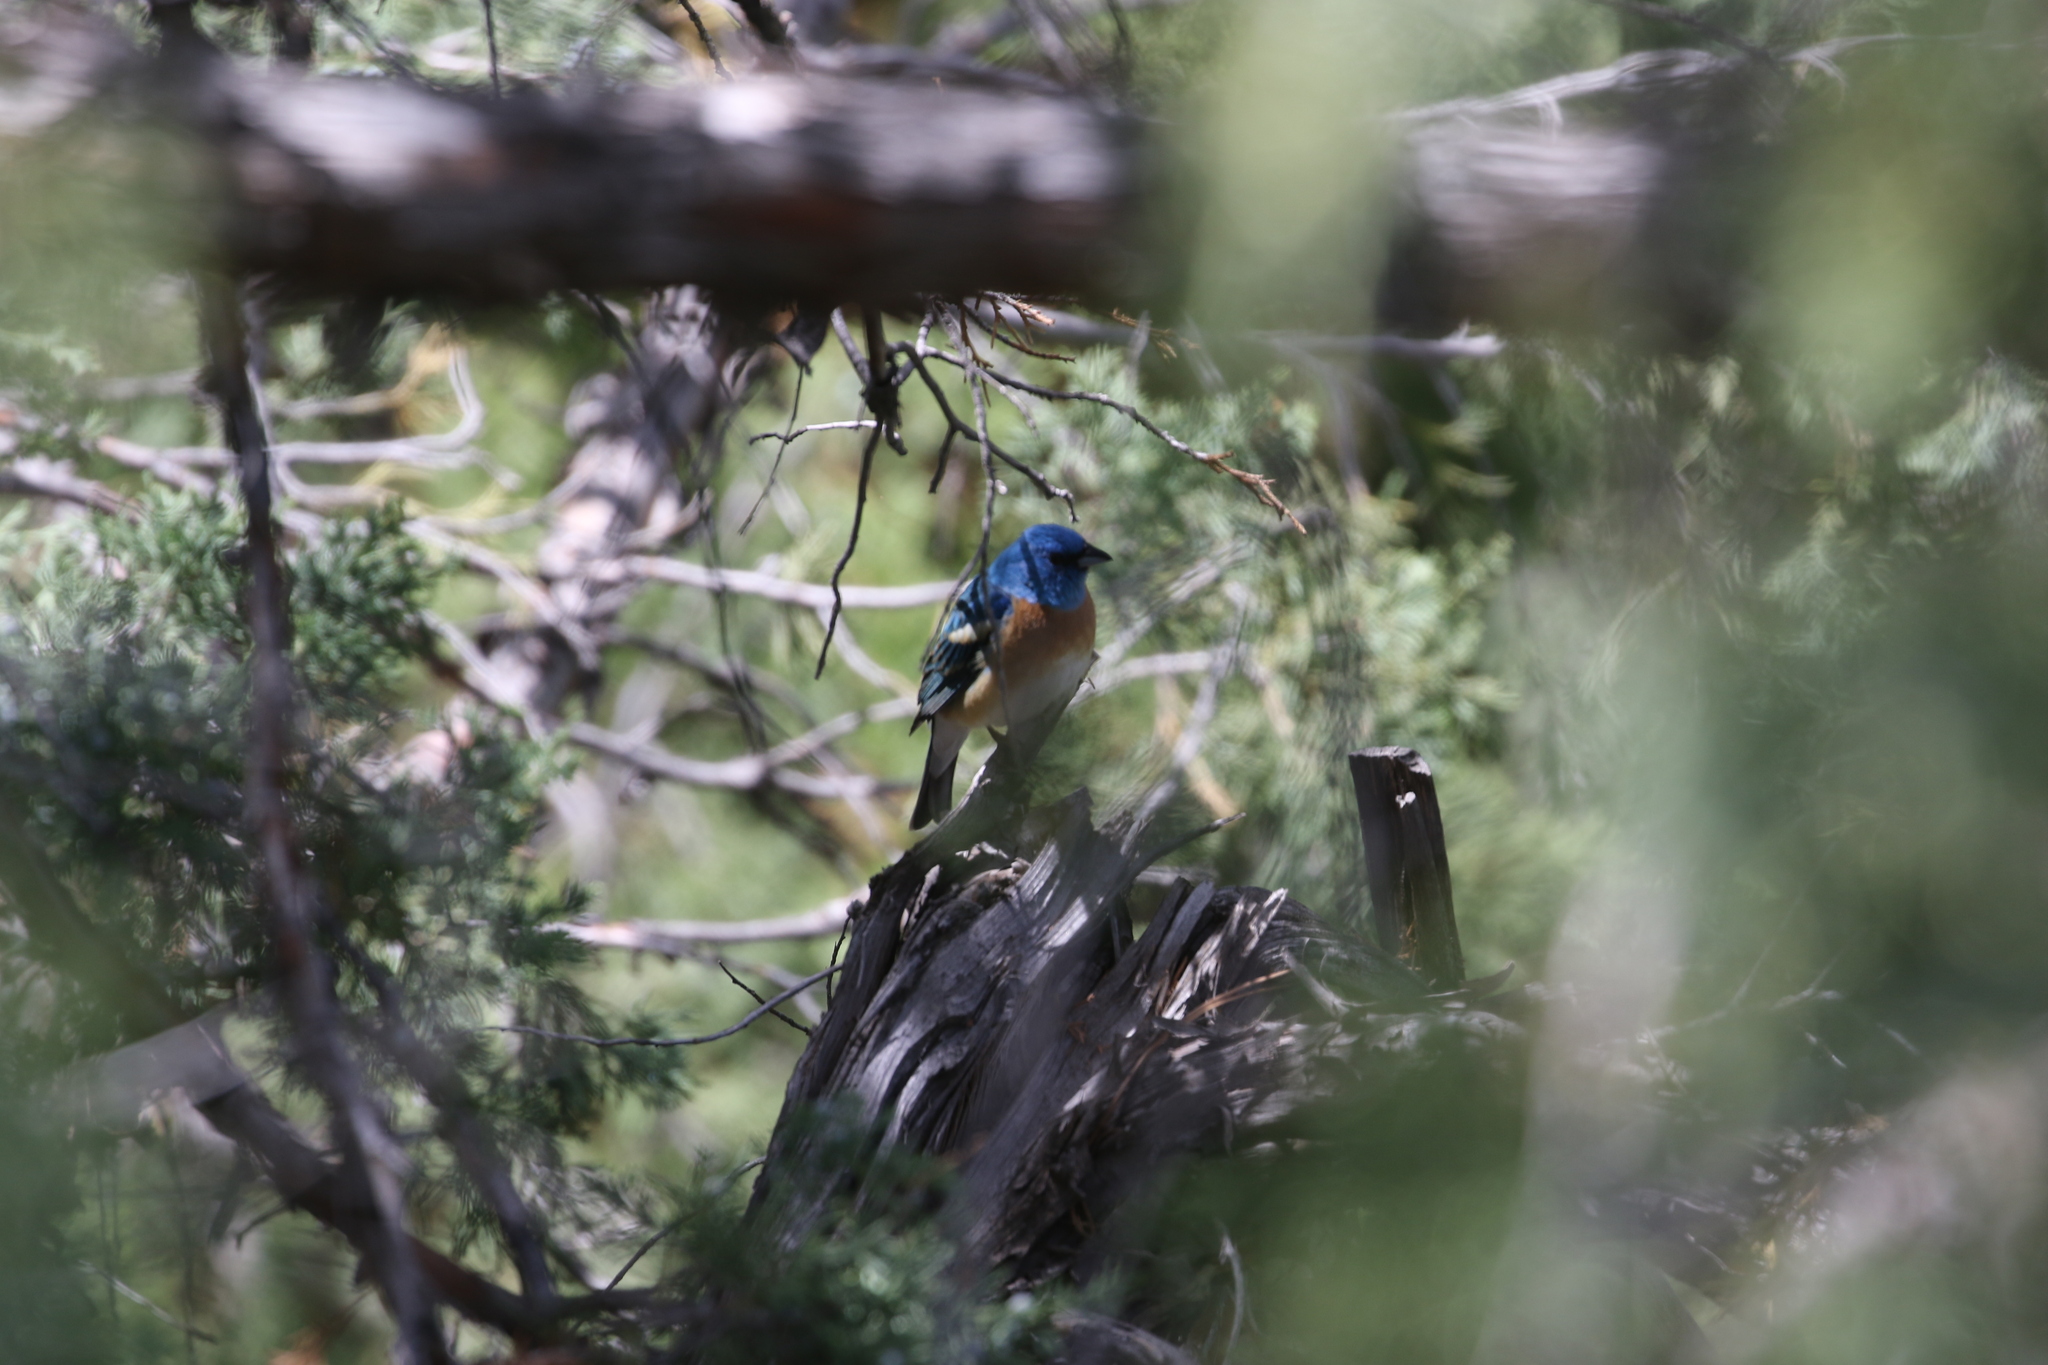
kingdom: Animalia
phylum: Chordata
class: Aves
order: Passeriformes
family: Cardinalidae
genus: Passerina
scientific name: Passerina amoena
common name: Lazuli bunting
